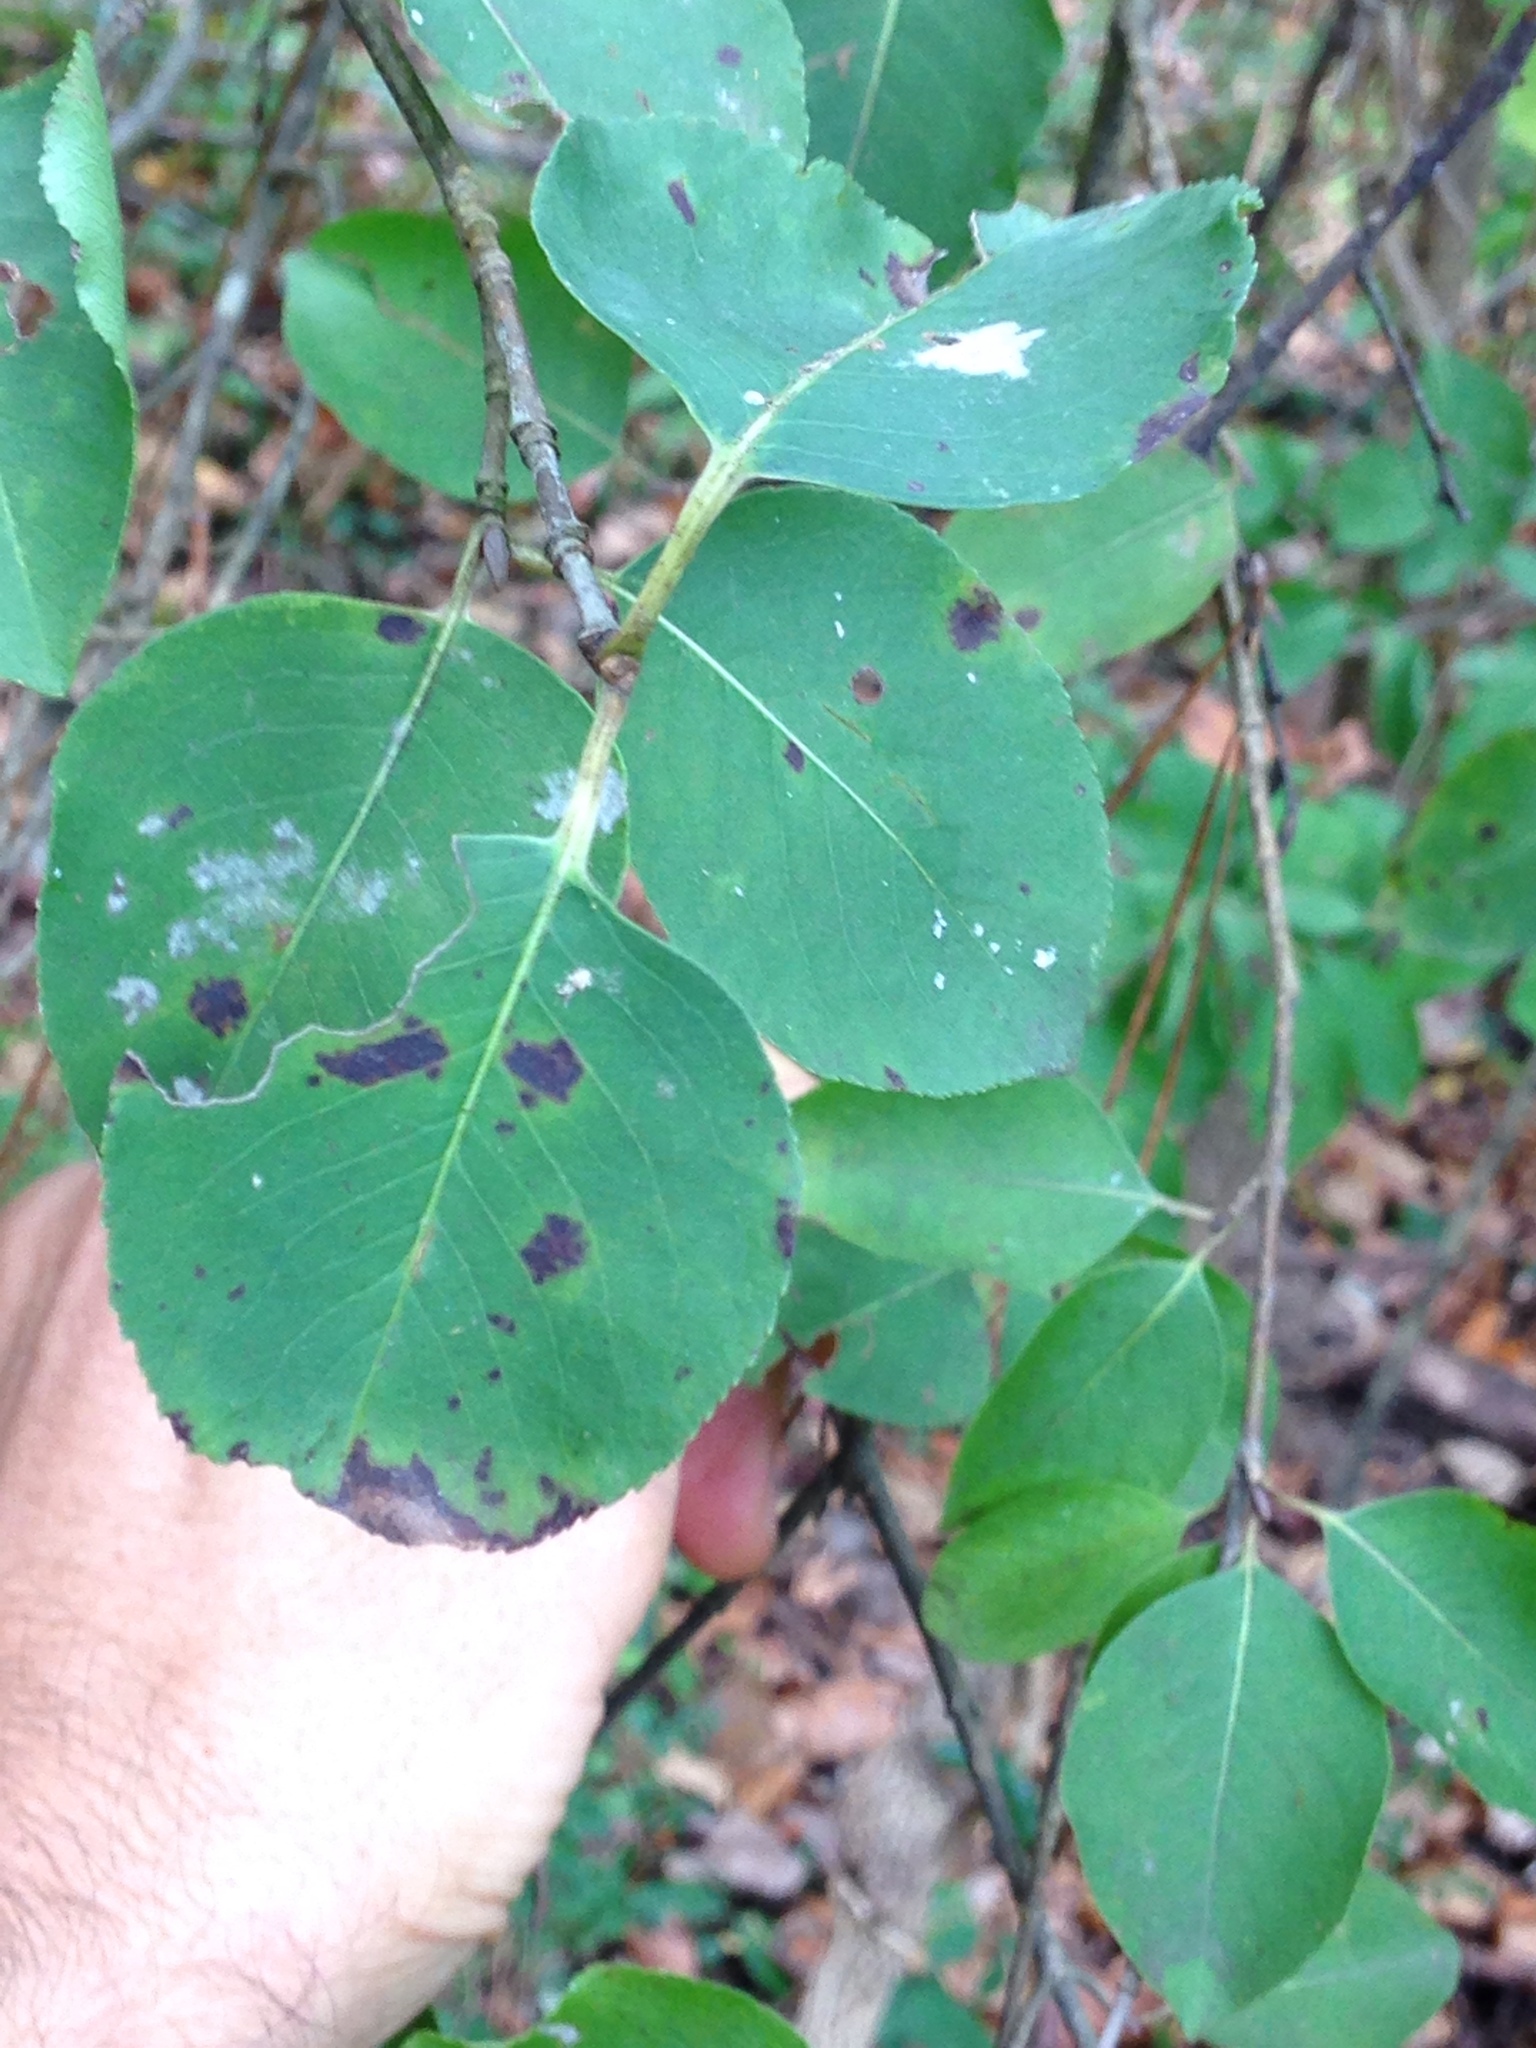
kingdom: Plantae
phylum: Tracheophyta
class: Magnoliopsida
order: Dipsacales
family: Viburnaceae
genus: Viburnum
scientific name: Viburnum prunifolium
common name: Black haw
